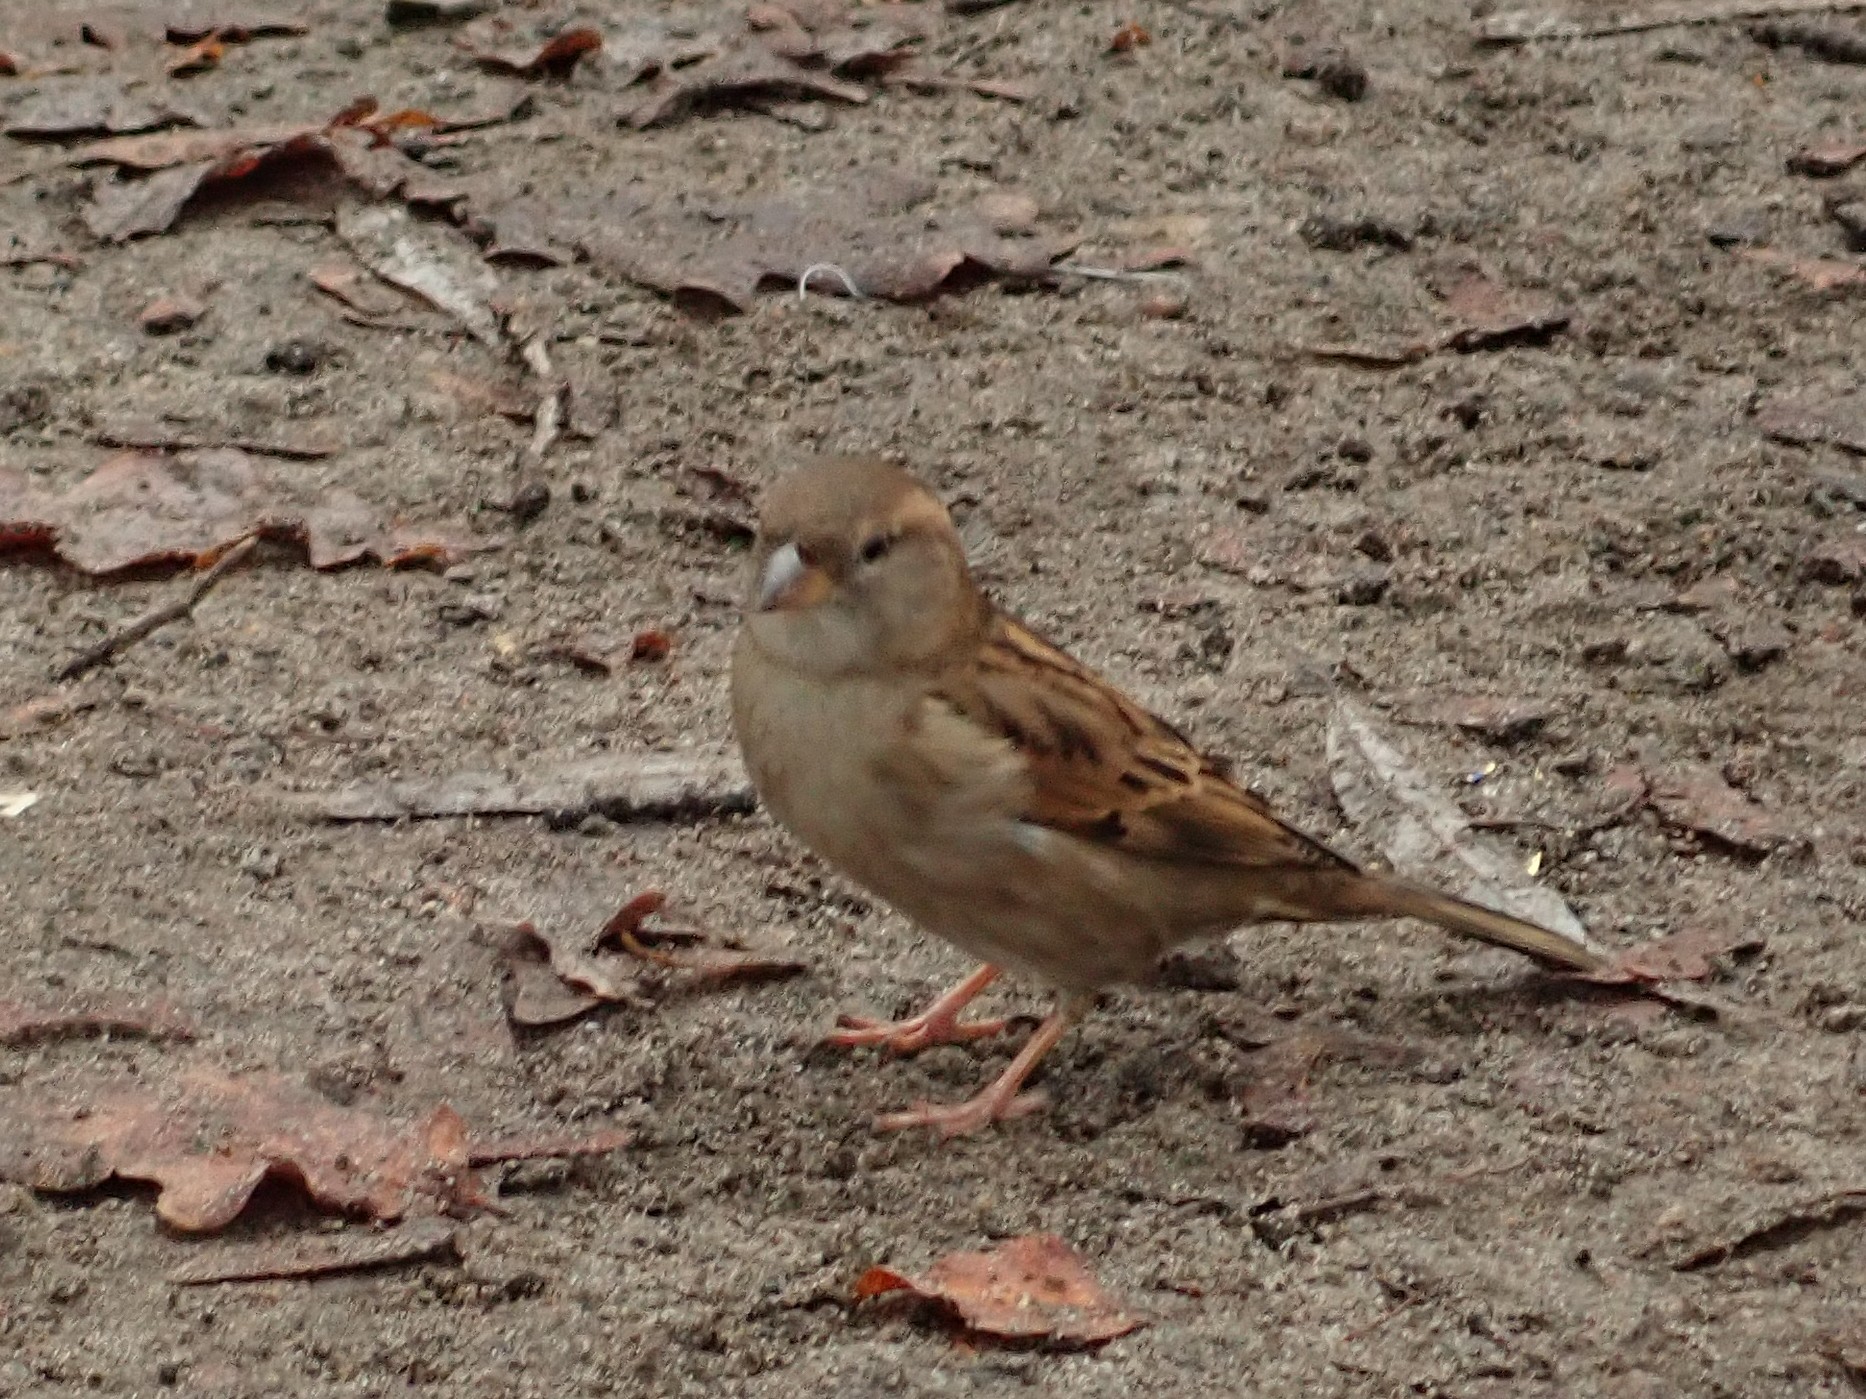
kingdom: Animalia
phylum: Chordata
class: Aves
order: Passeriformes
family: Passeridae
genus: Passer
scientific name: Passer domesticus
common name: House sparrow
